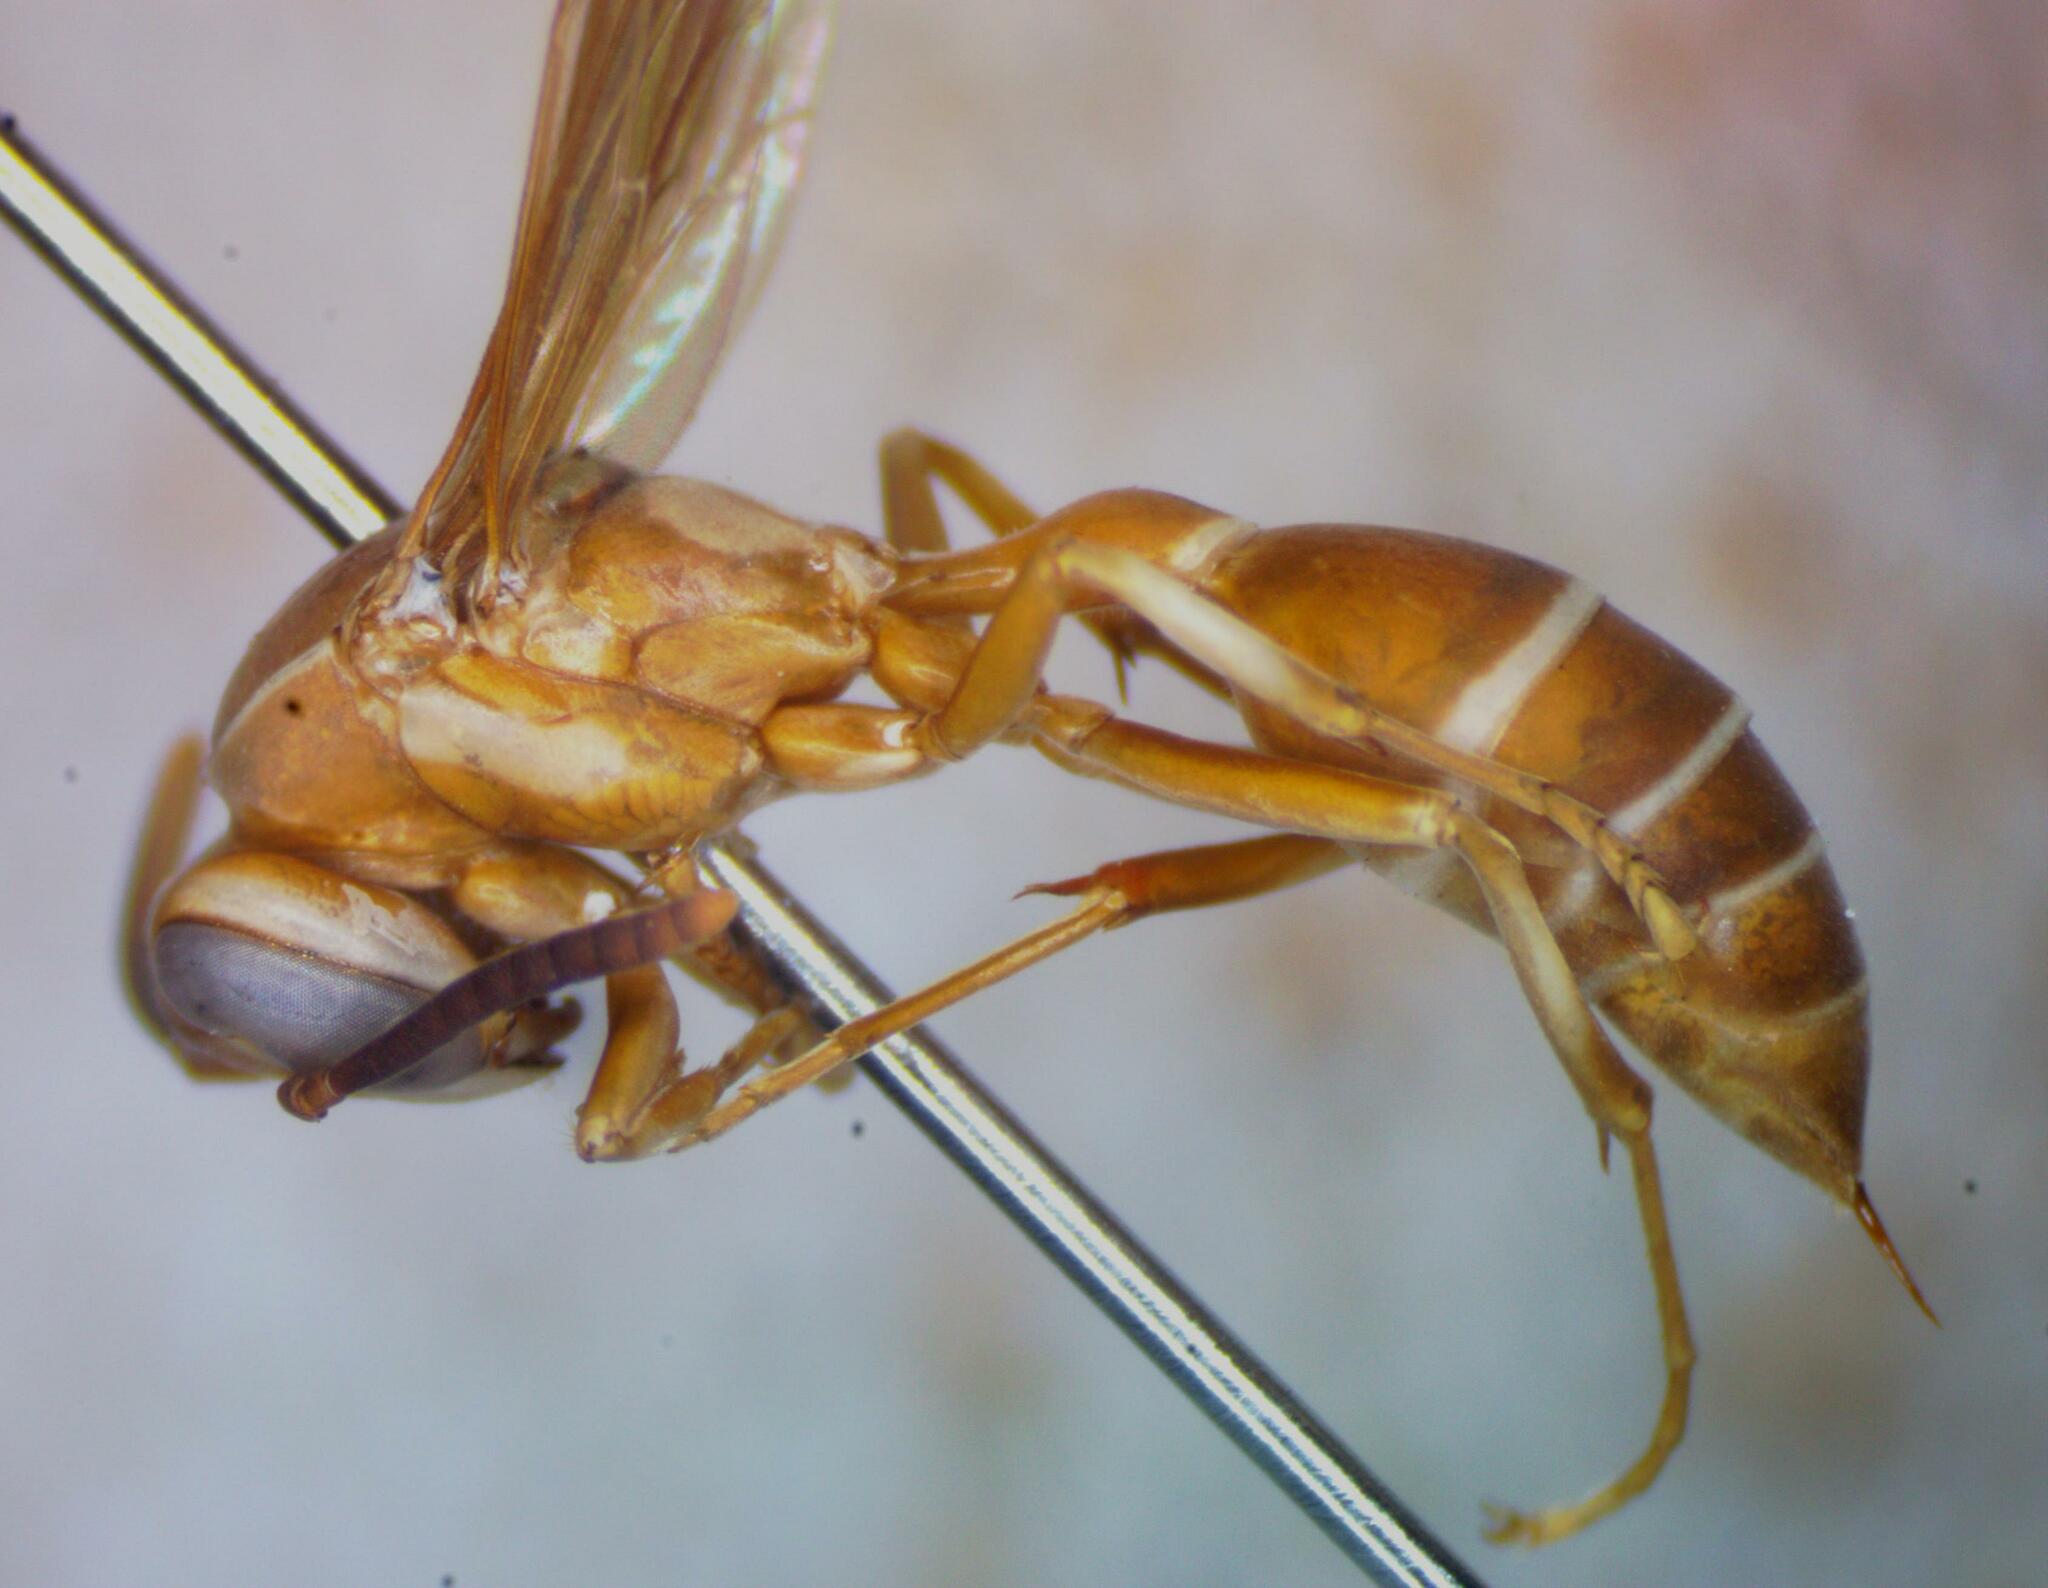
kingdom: Animalia
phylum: Arthropoda
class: Insecta
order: Hymenoptera
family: Eumenidae
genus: Polybia
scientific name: Polybia nidulatrix
